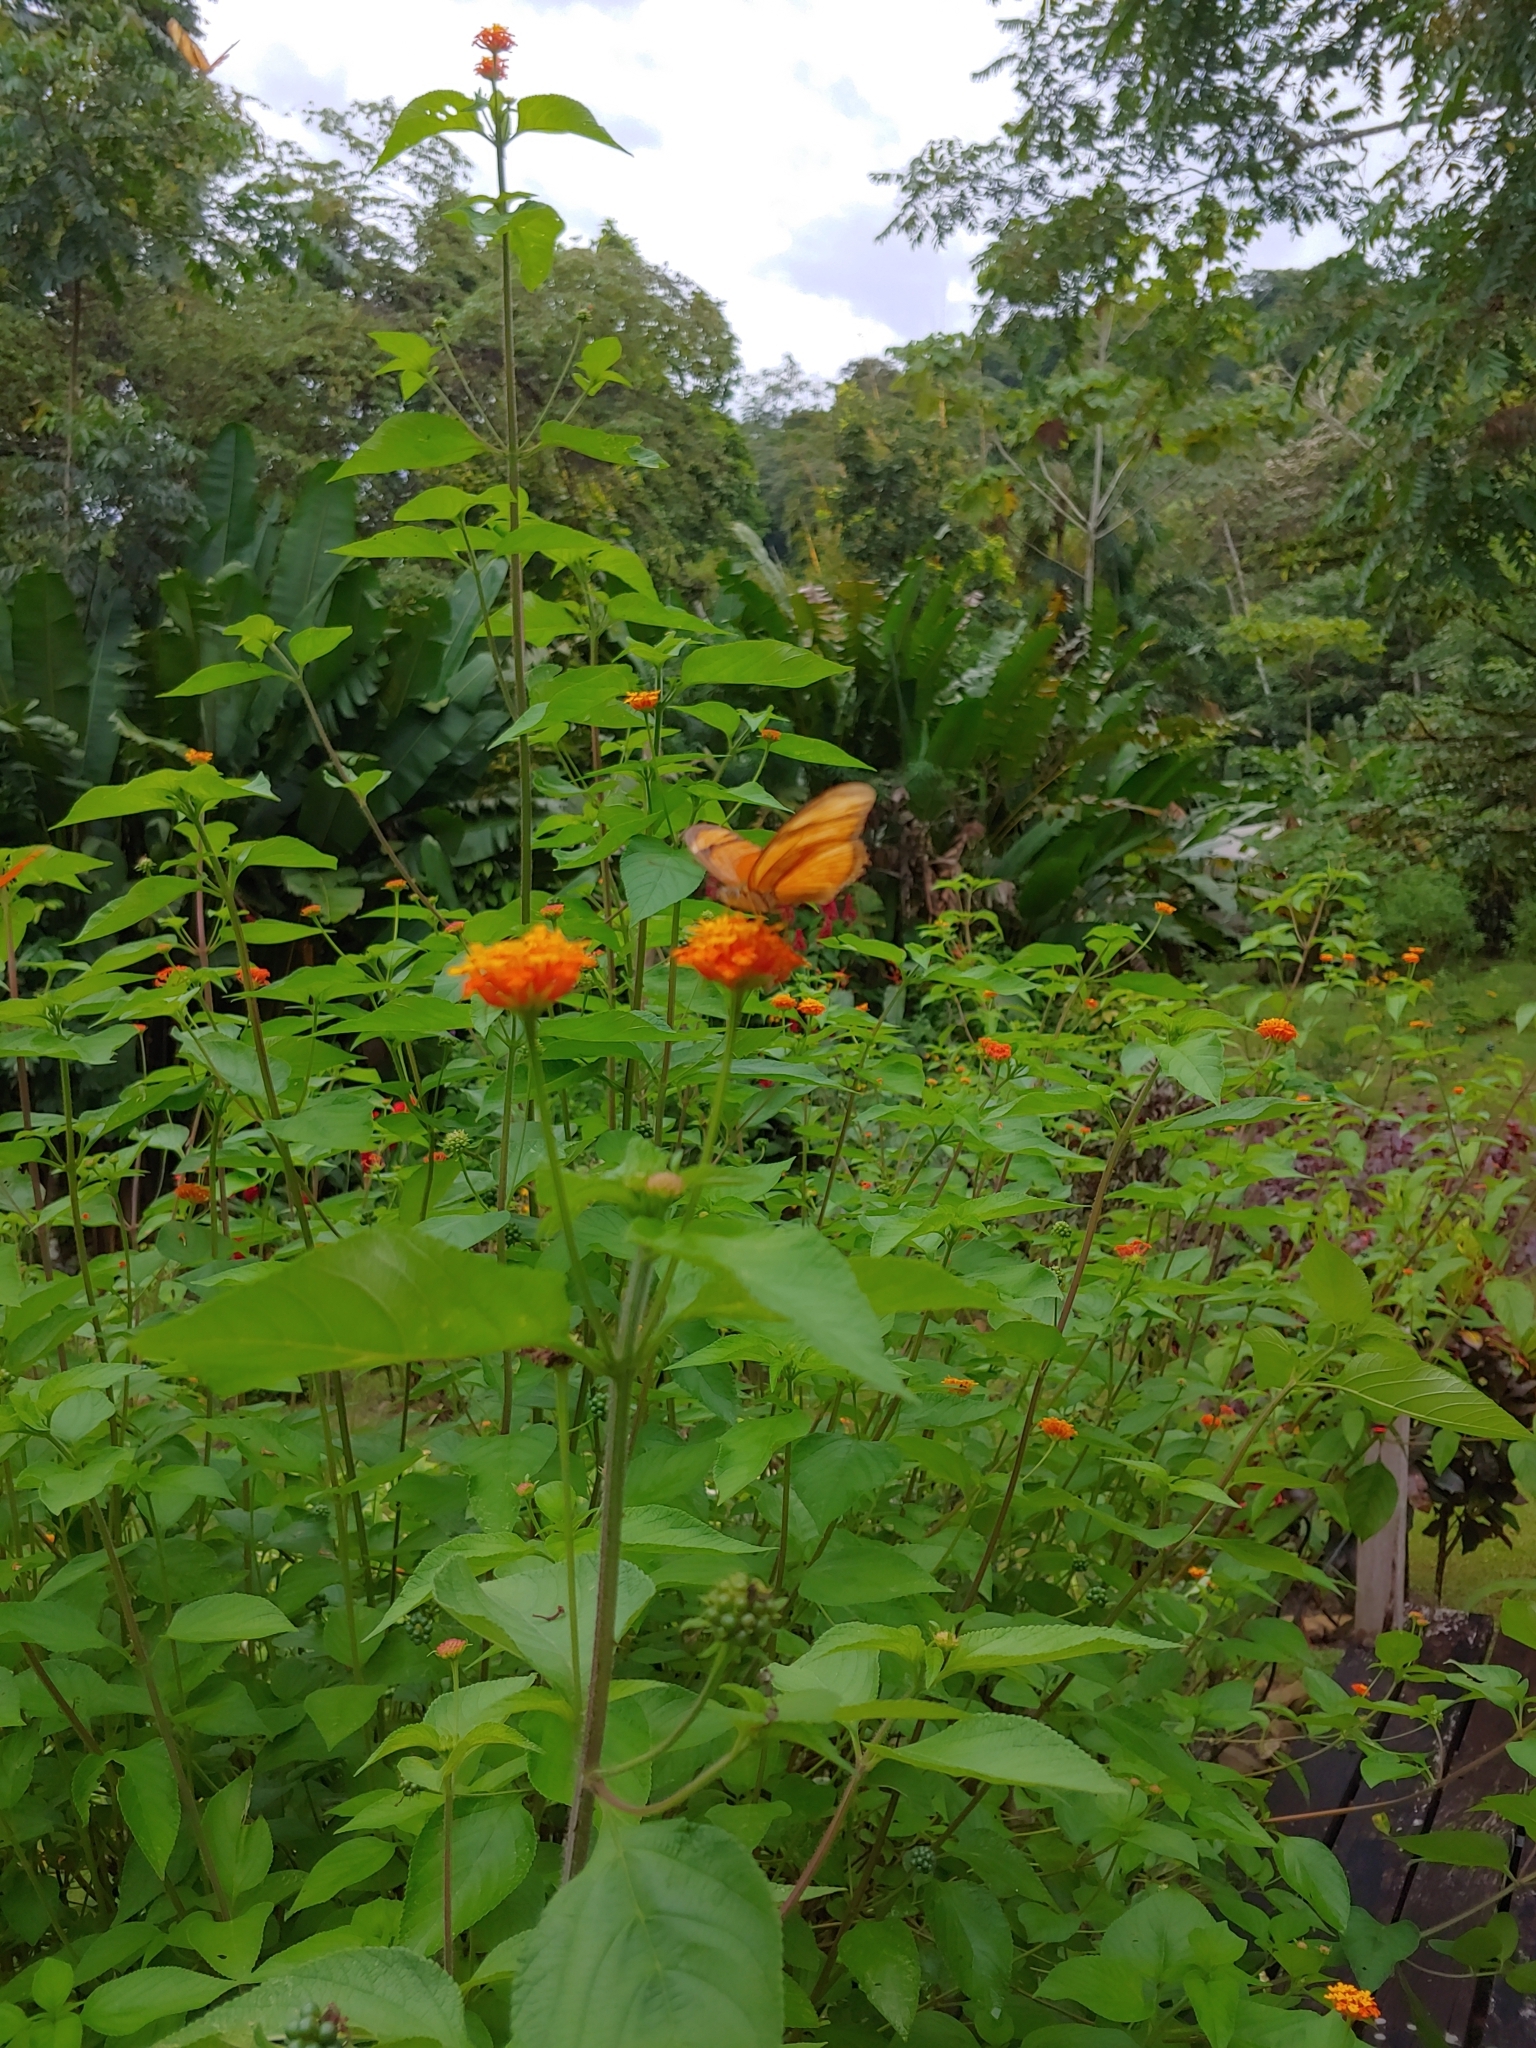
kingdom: Animalia
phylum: Arthropoda
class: Insecta
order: Lepidoptera
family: Nymphalidae
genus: Dryas
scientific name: Dryas iulia
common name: Flambeau
